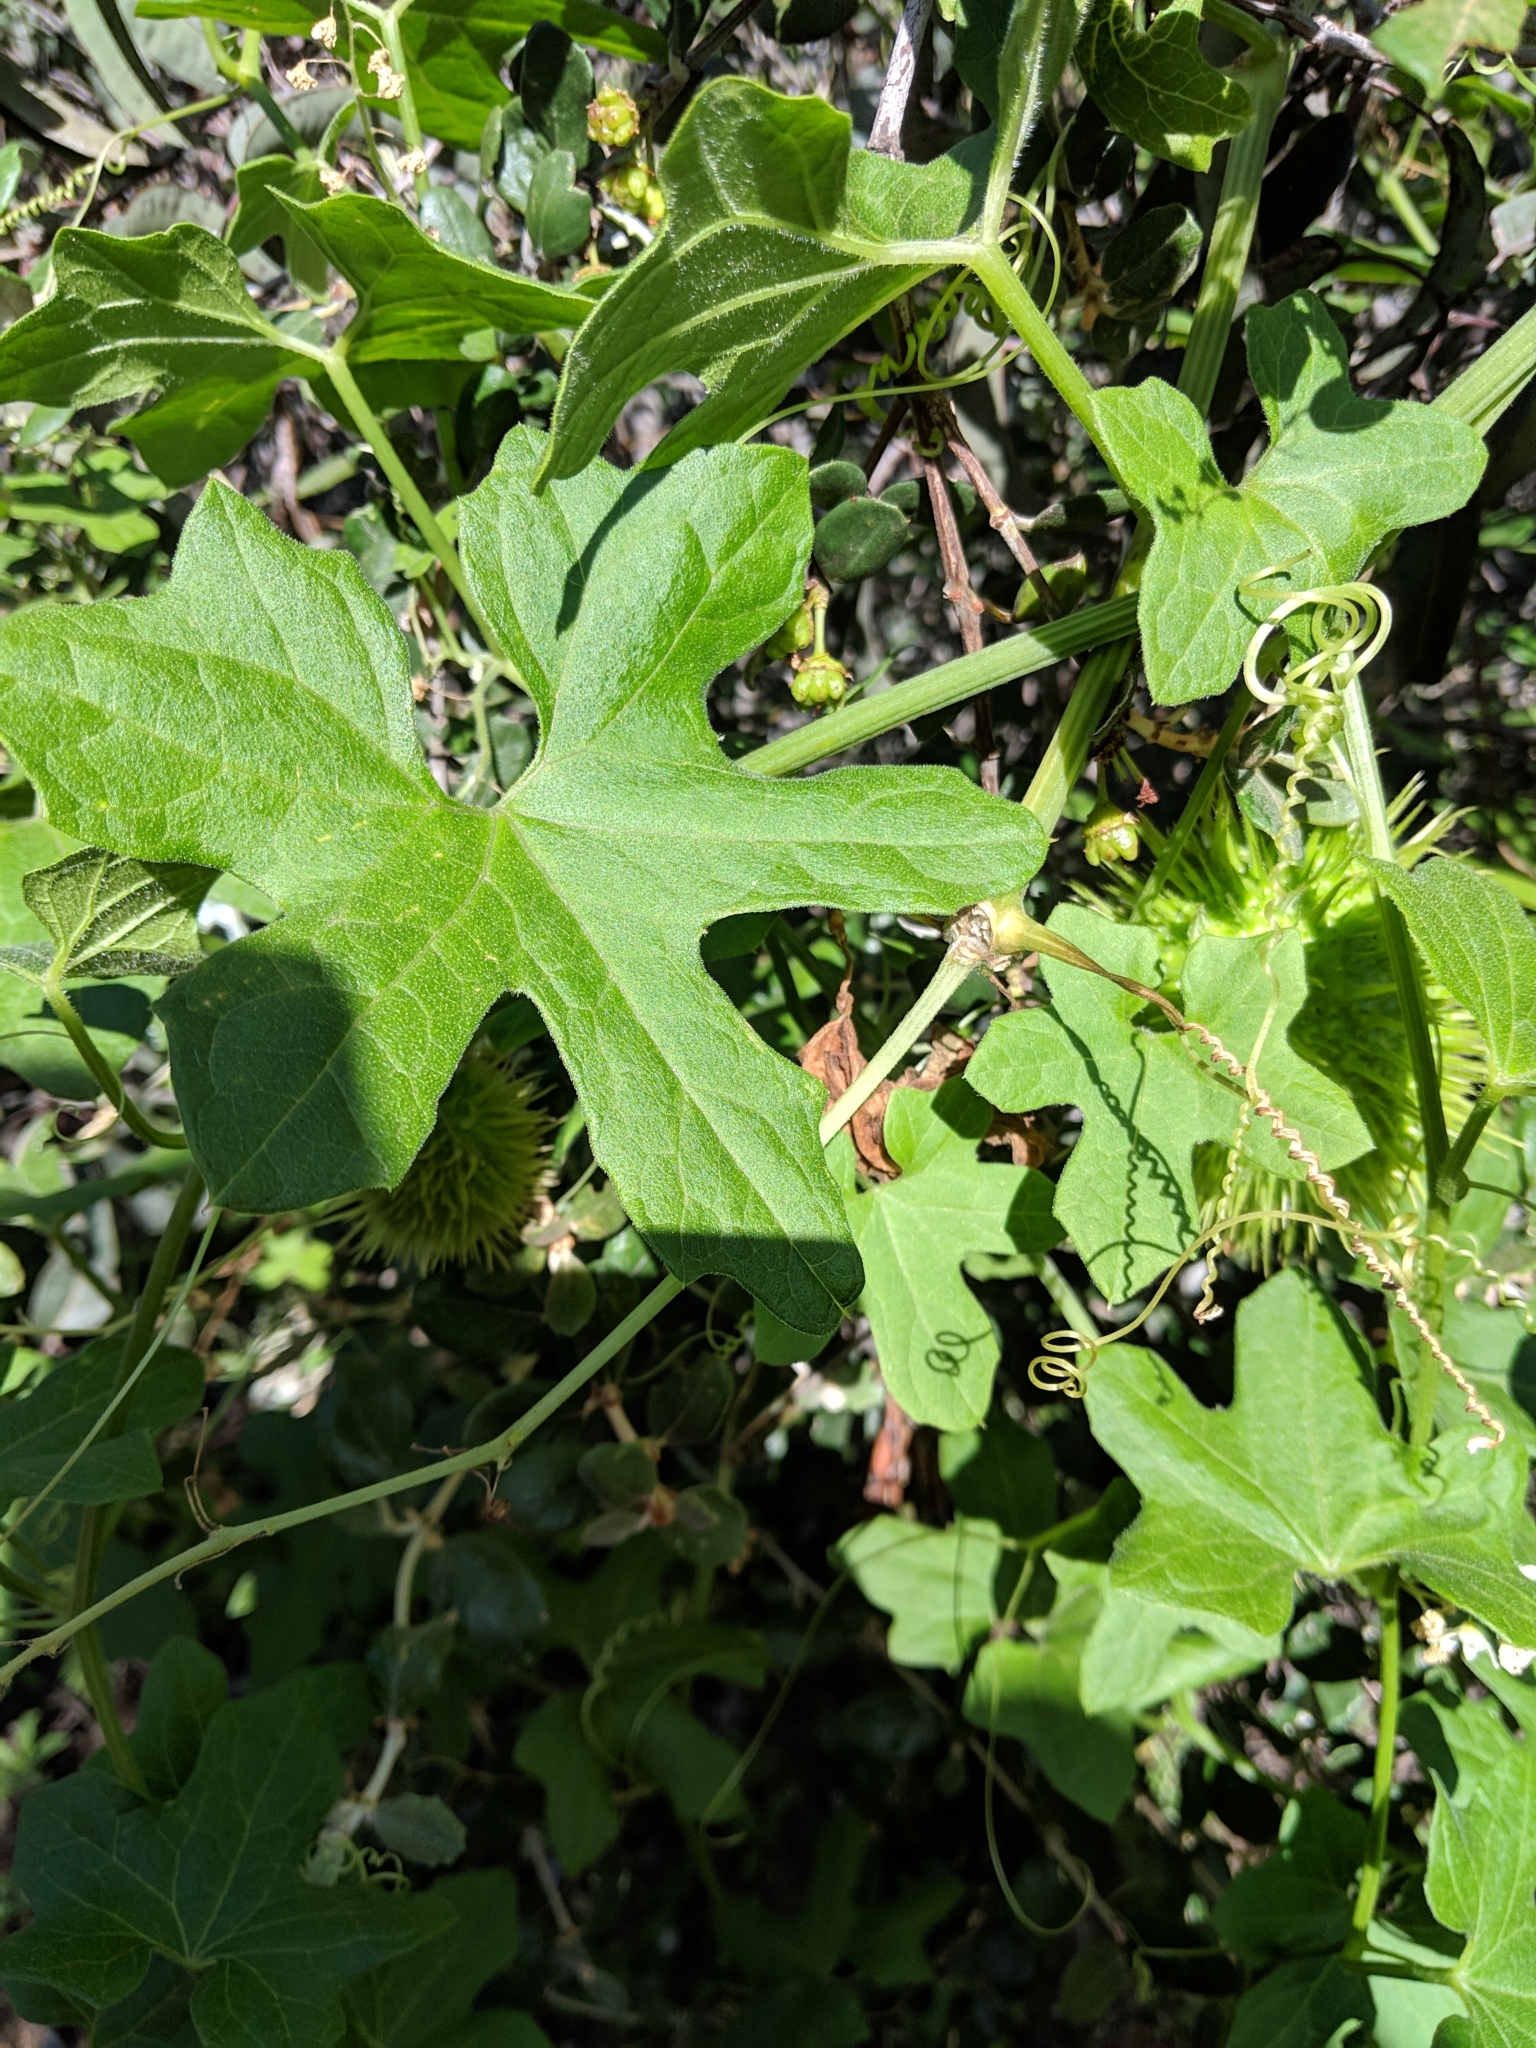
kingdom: Plantae
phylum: Tracheophyta
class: Magnoliopsida
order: Cucurbitales
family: Cucurbitaceae
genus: Marah
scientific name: Marah macrocarpa
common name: Cucamonga manroot
